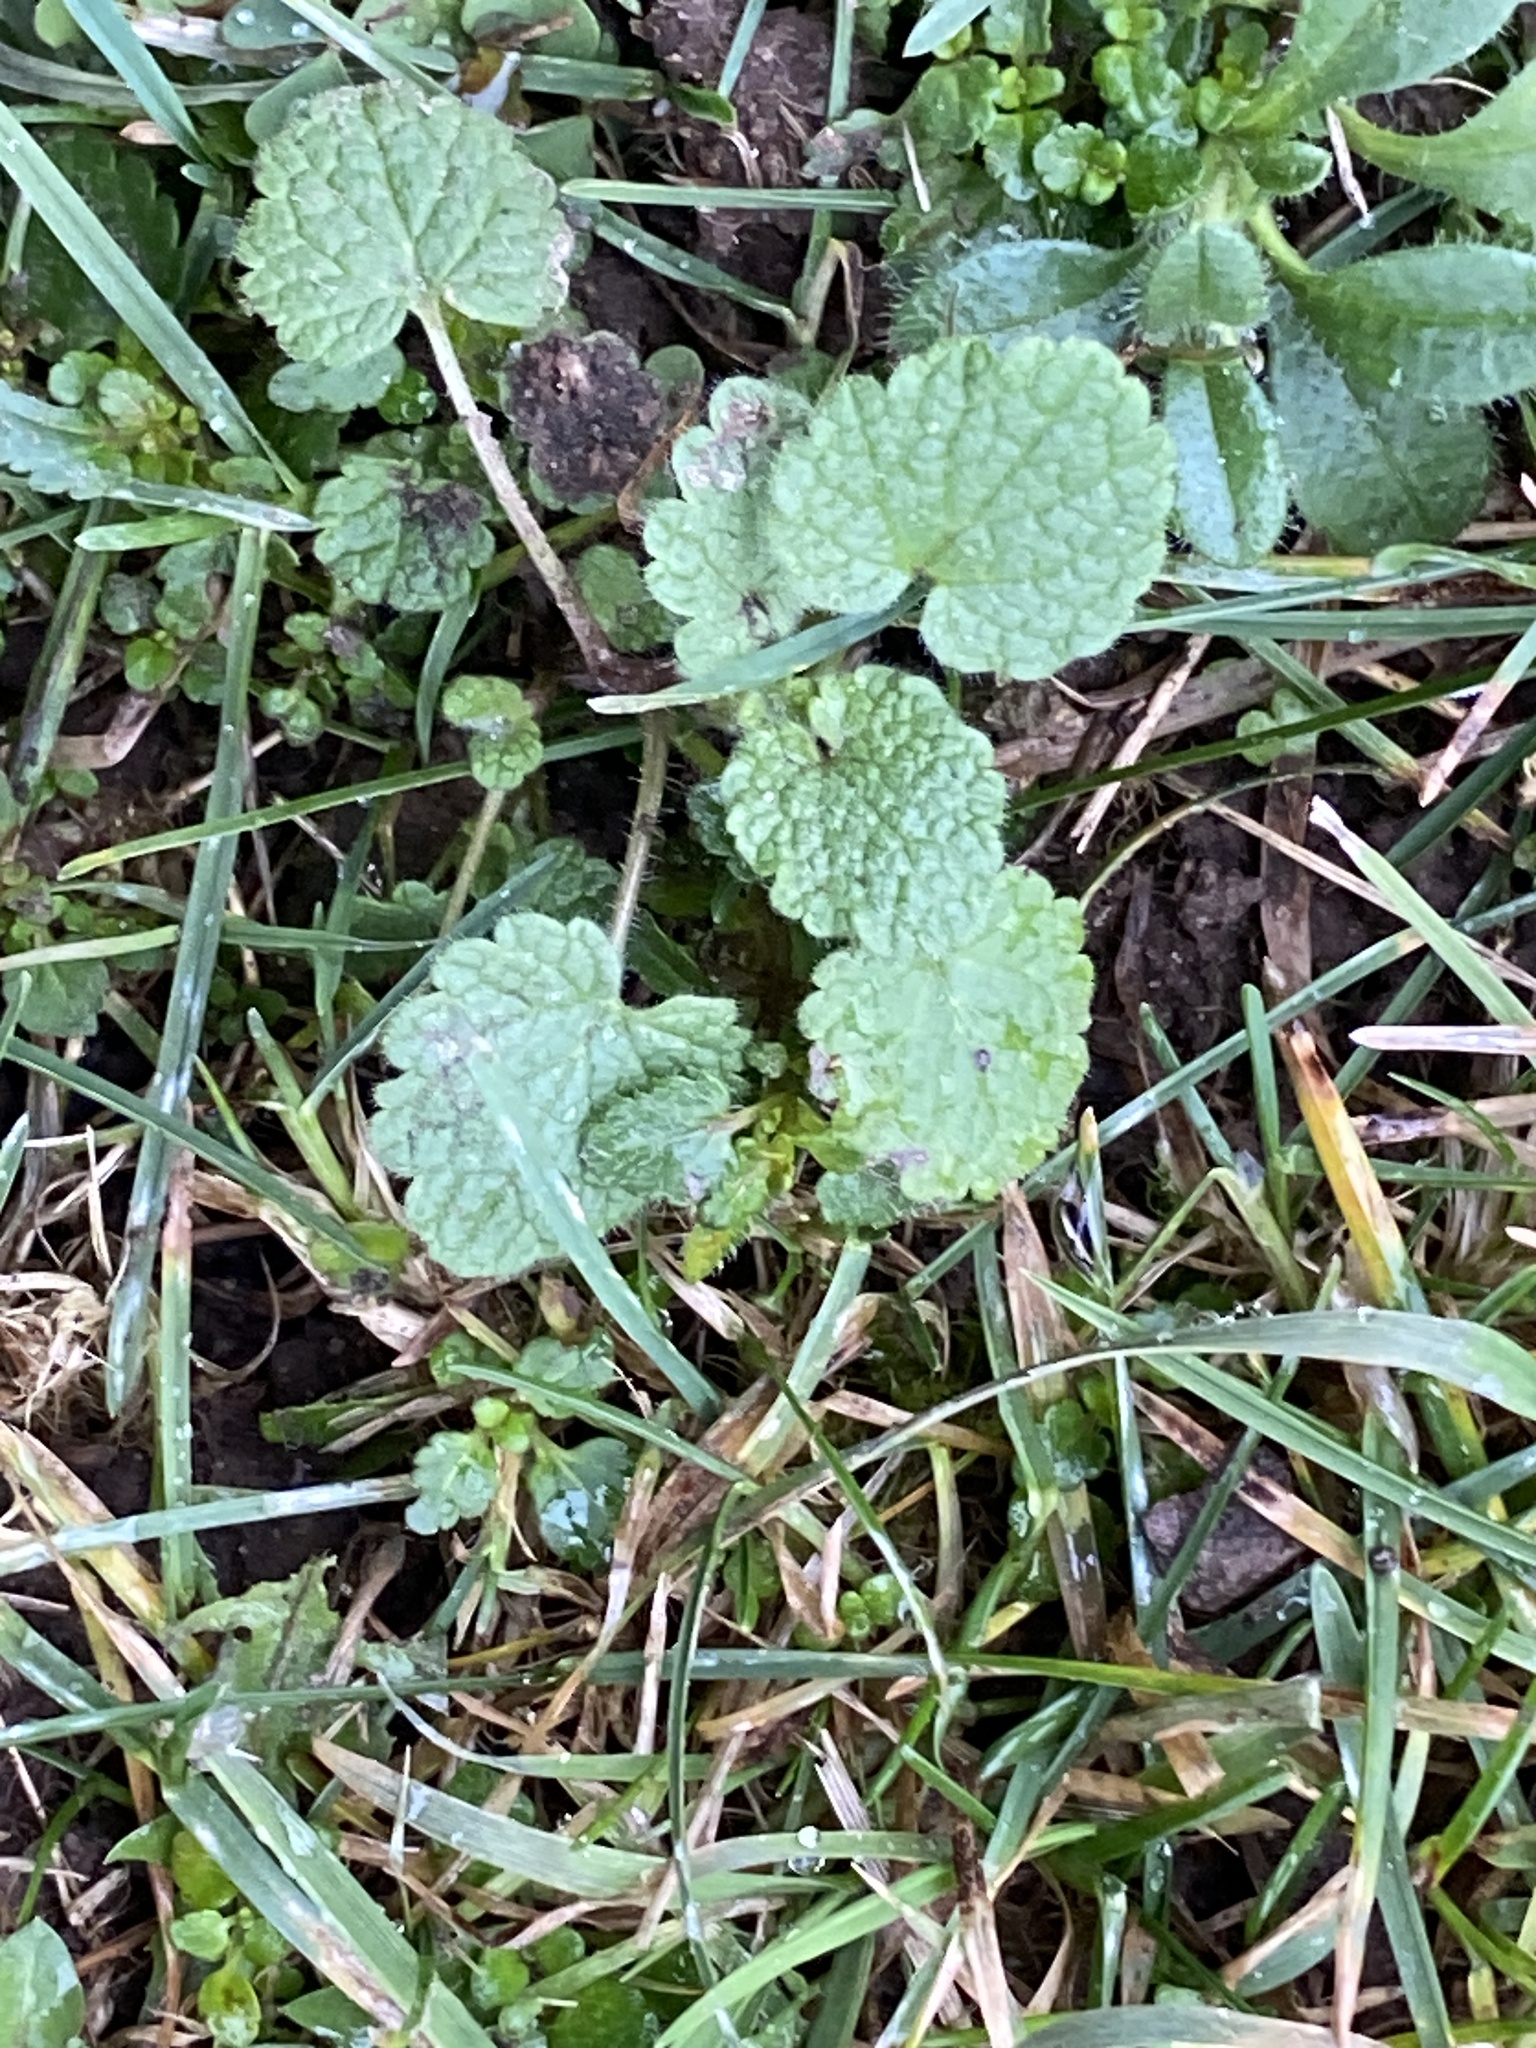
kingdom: Plantae
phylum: Tracheophyta
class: Magnoliopsida
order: Lamiales
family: Lamiaceae
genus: Lamium
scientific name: Lamium purpureum
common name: Red dead-nettle
